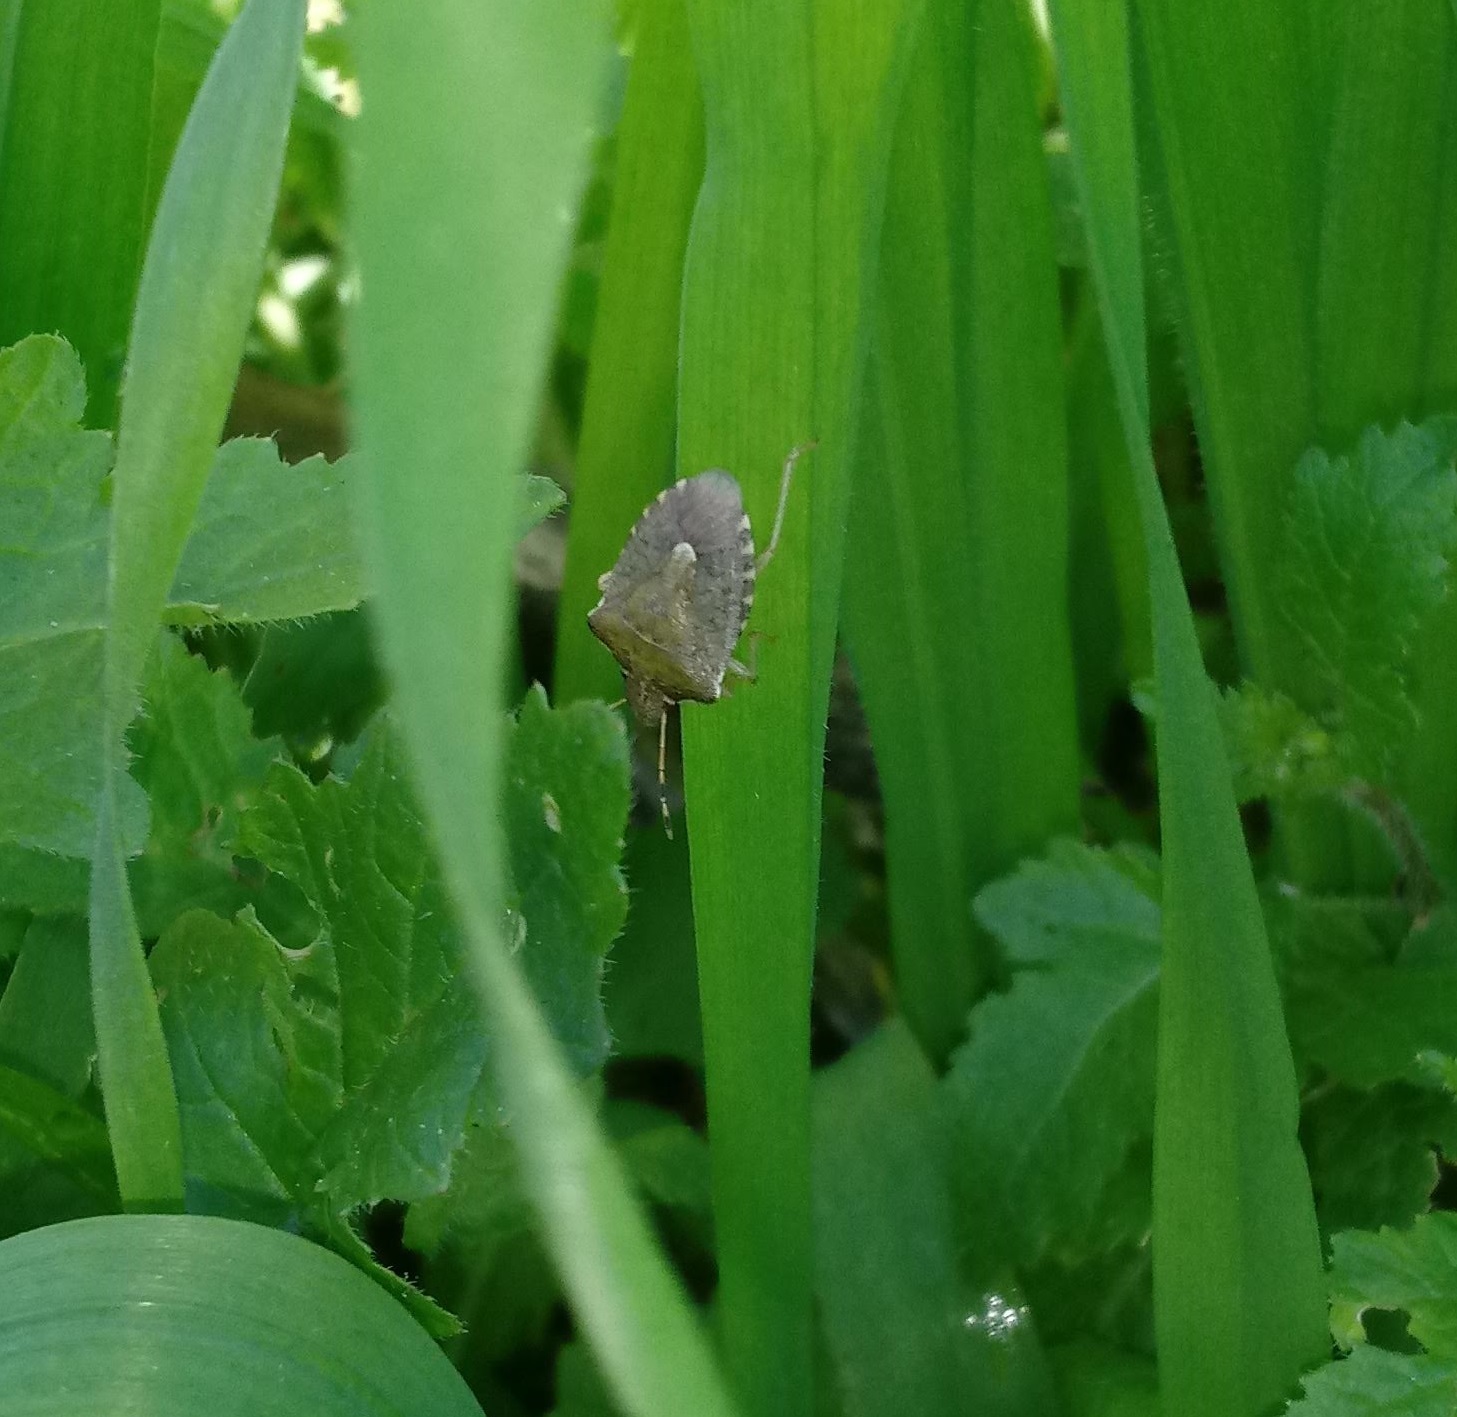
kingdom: Animalia
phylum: Arthropoda
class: Insecta
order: Hemiptera
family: Pentatomidae
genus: Holcostethus
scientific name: Holcostethus strictus
